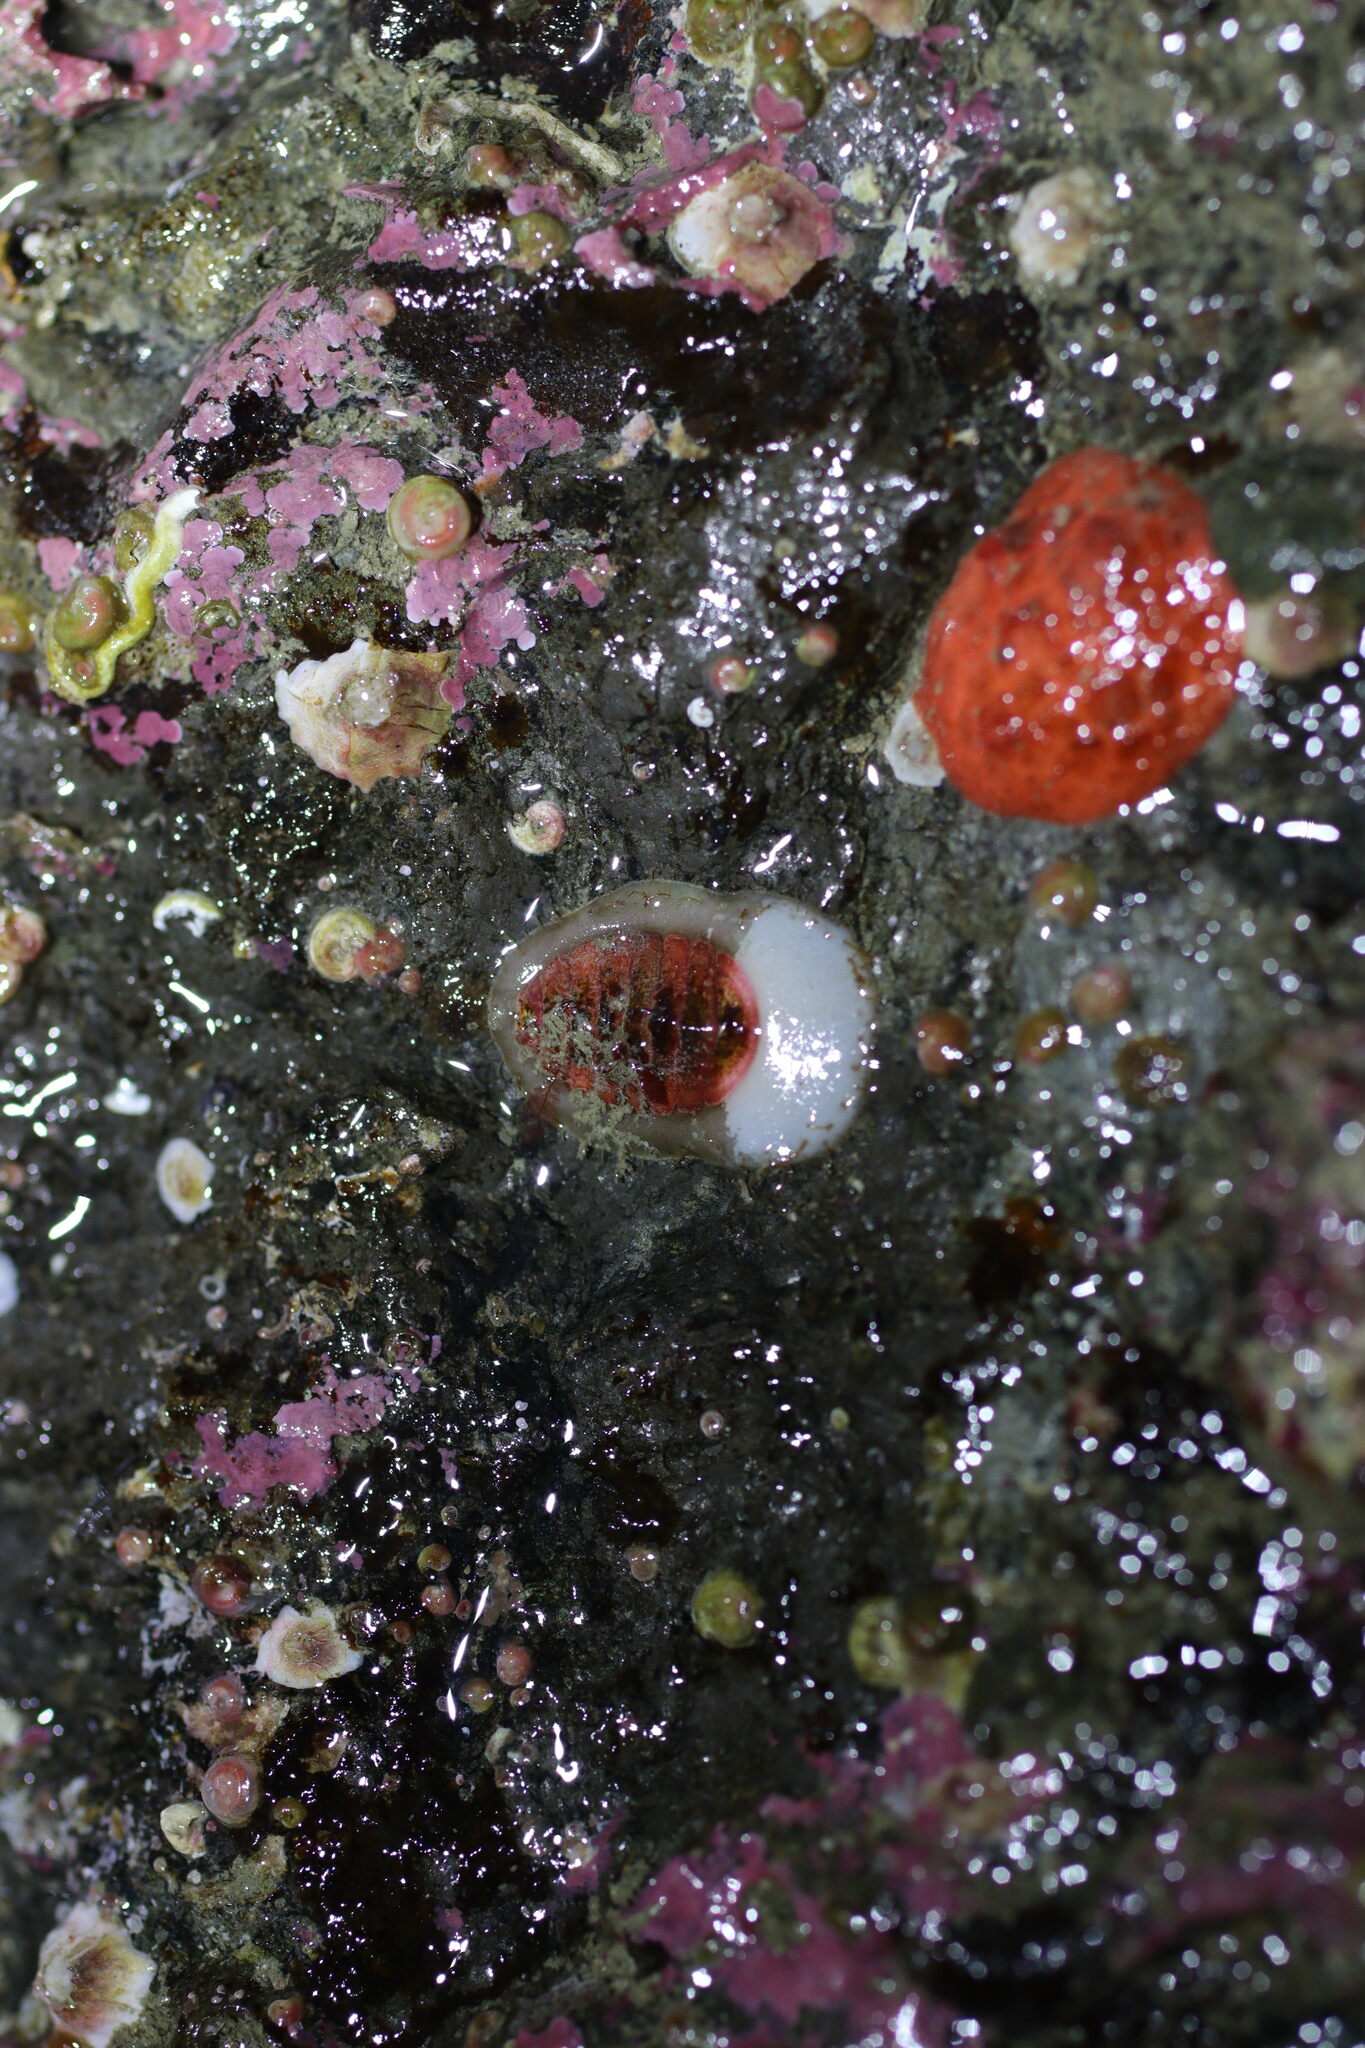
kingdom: Animalia
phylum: Mollusca
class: Polyplacophora
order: Chitonida
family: Mopaliidae
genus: Placiphorella
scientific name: Placiphorella rufa
